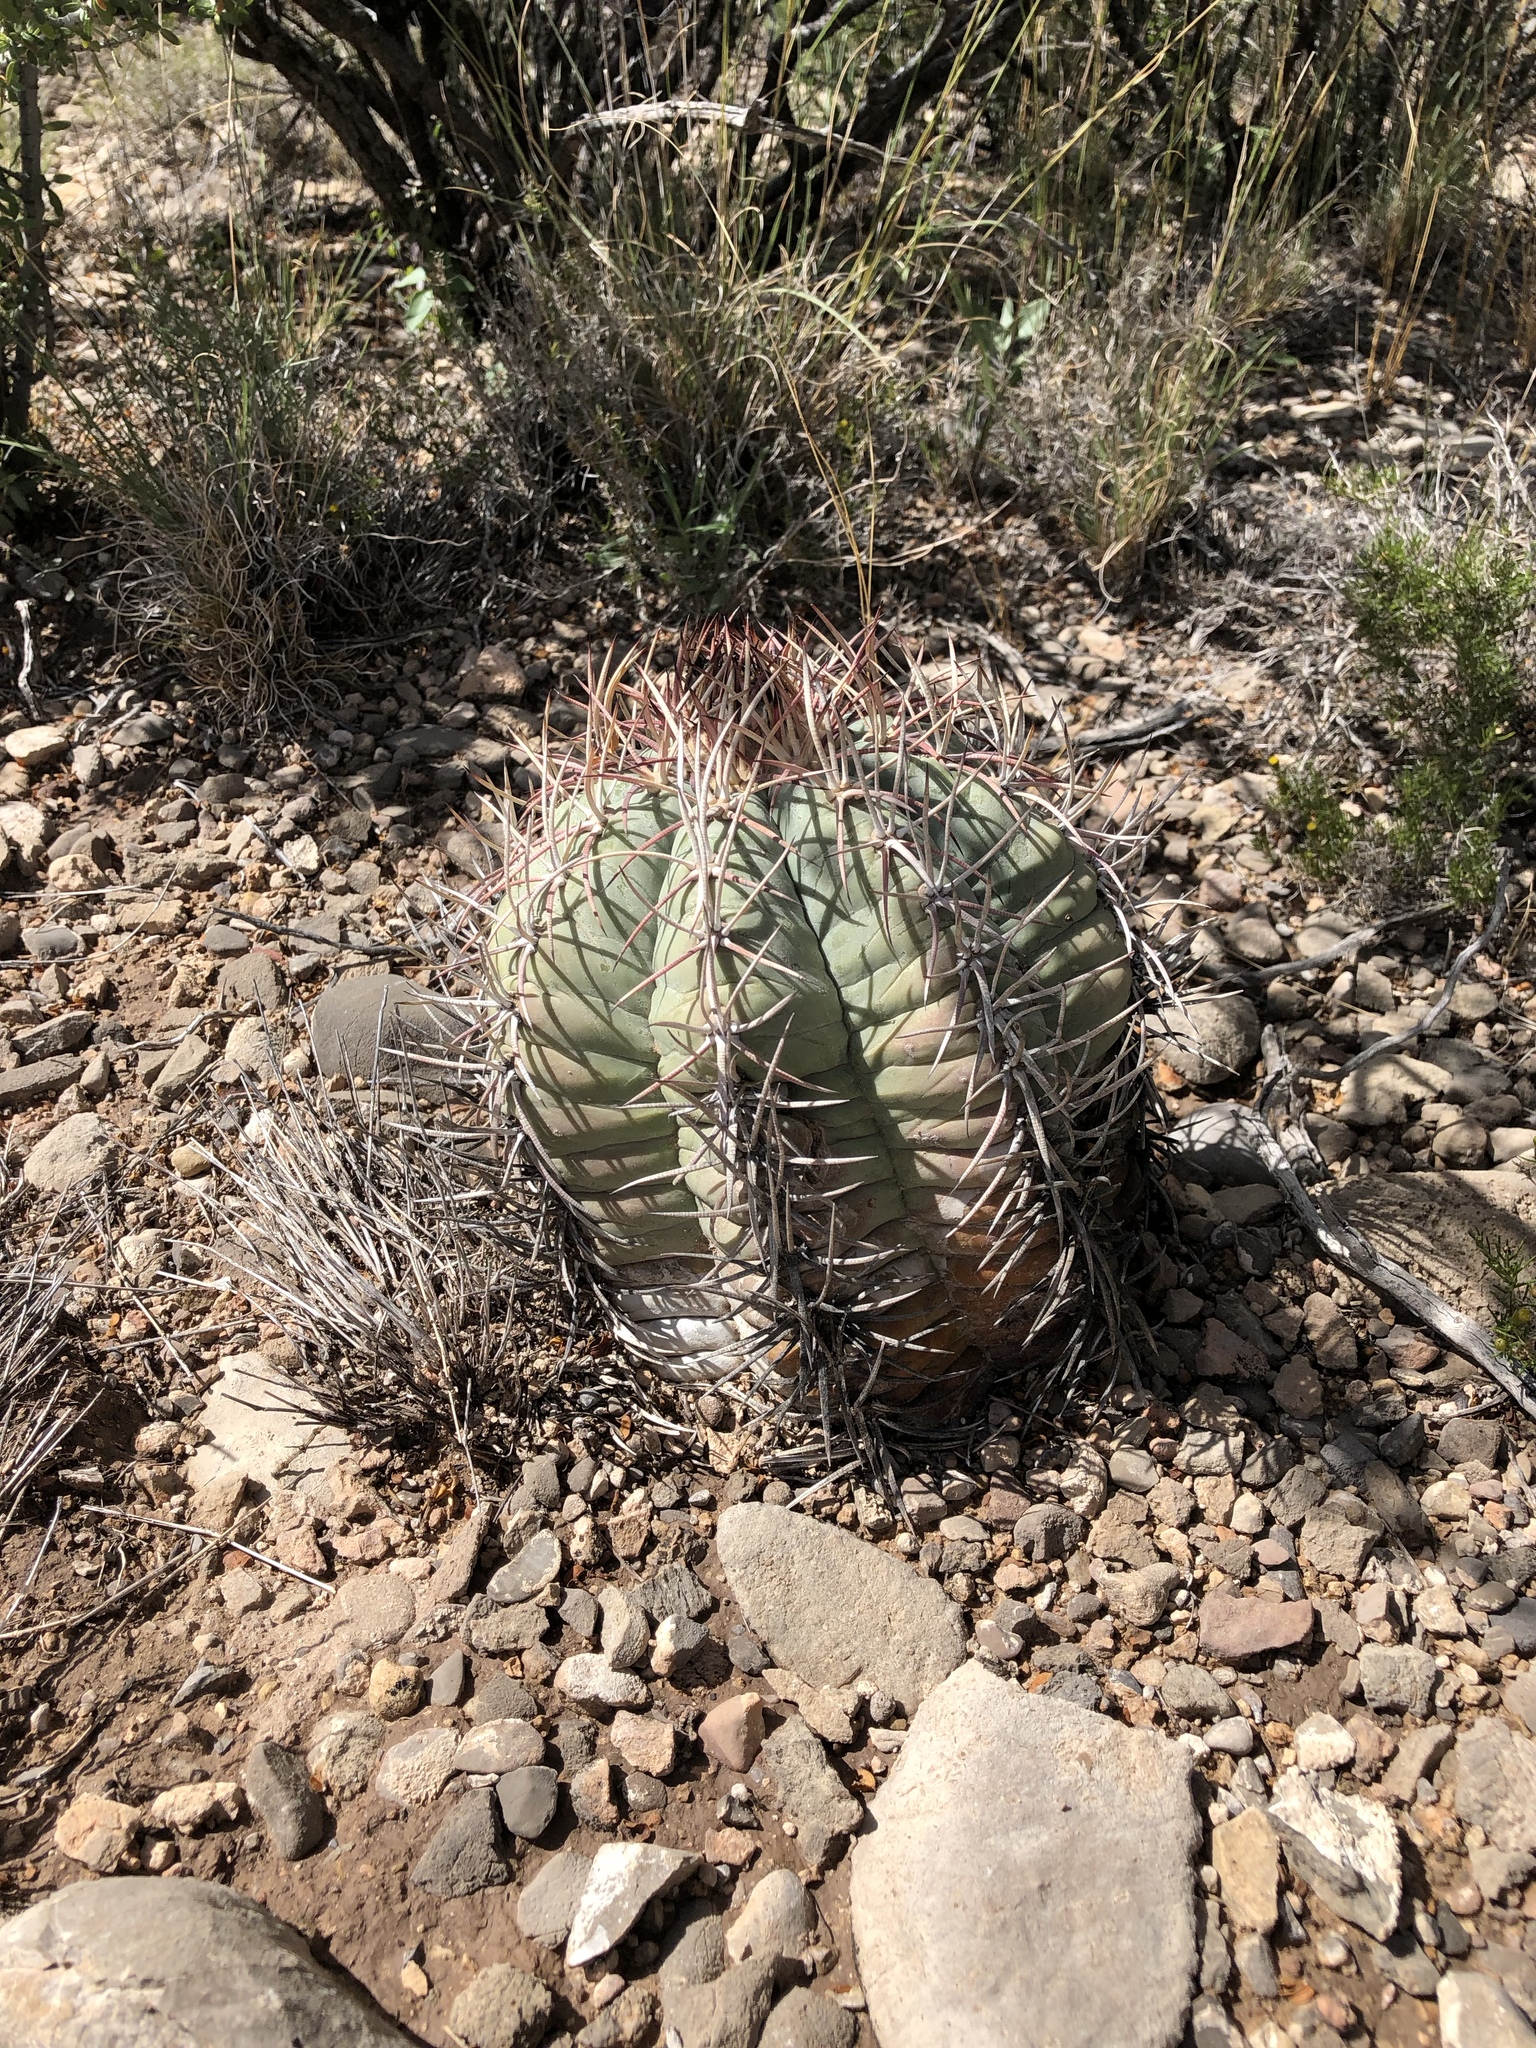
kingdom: Plantae
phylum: Tracheophyta
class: Magnoliopsida
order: Caryophyllales
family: Cactaceae
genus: Echinocactus
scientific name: Echinocactus horizonthalonius
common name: Devilshead
